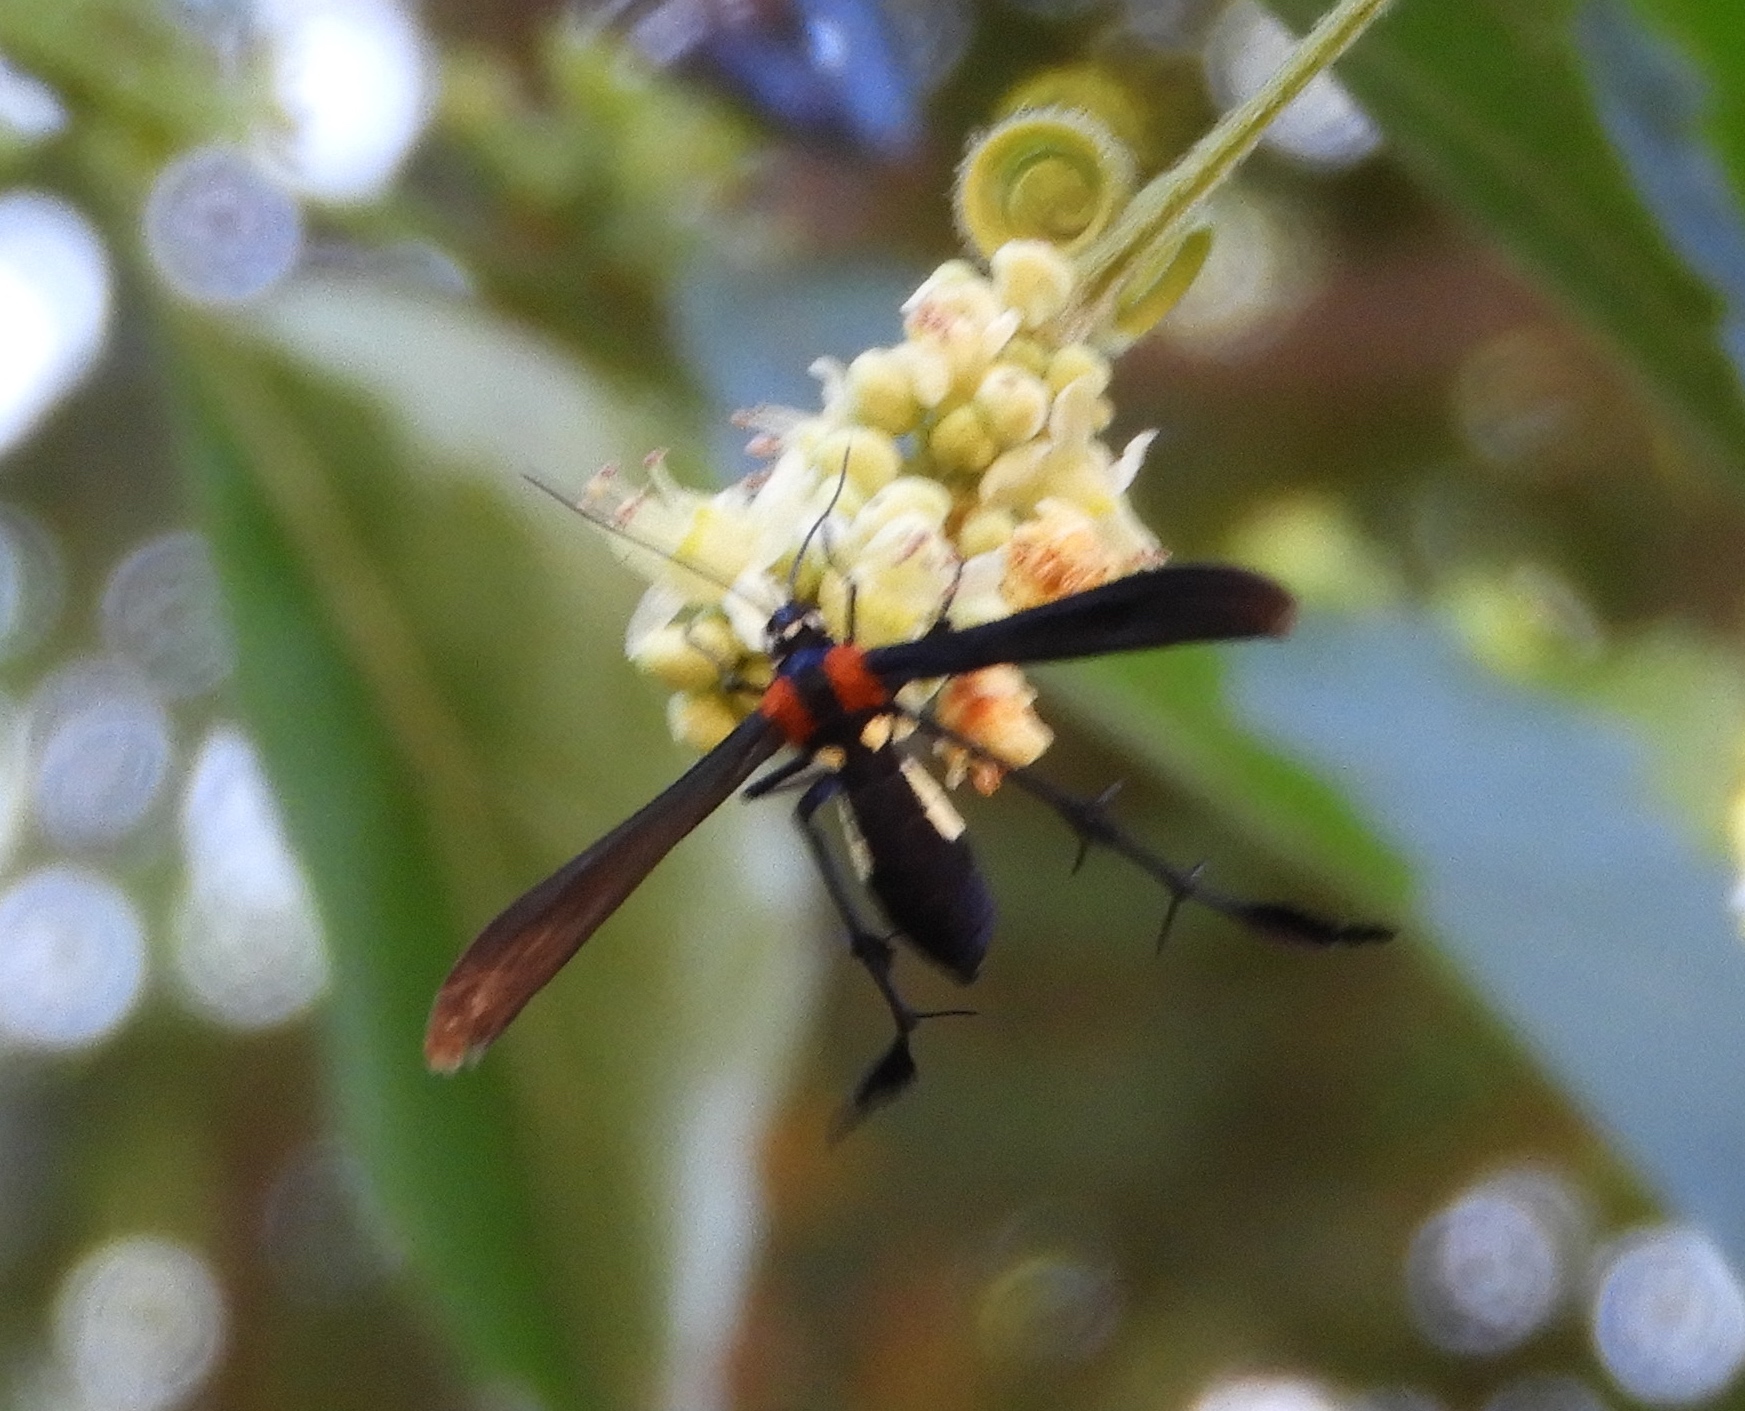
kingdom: Animalia
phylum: Arthropoda
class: Insecta
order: Lepidoptera
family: Pterophoridae
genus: Hellinsia
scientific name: Hellinsia chamelai
